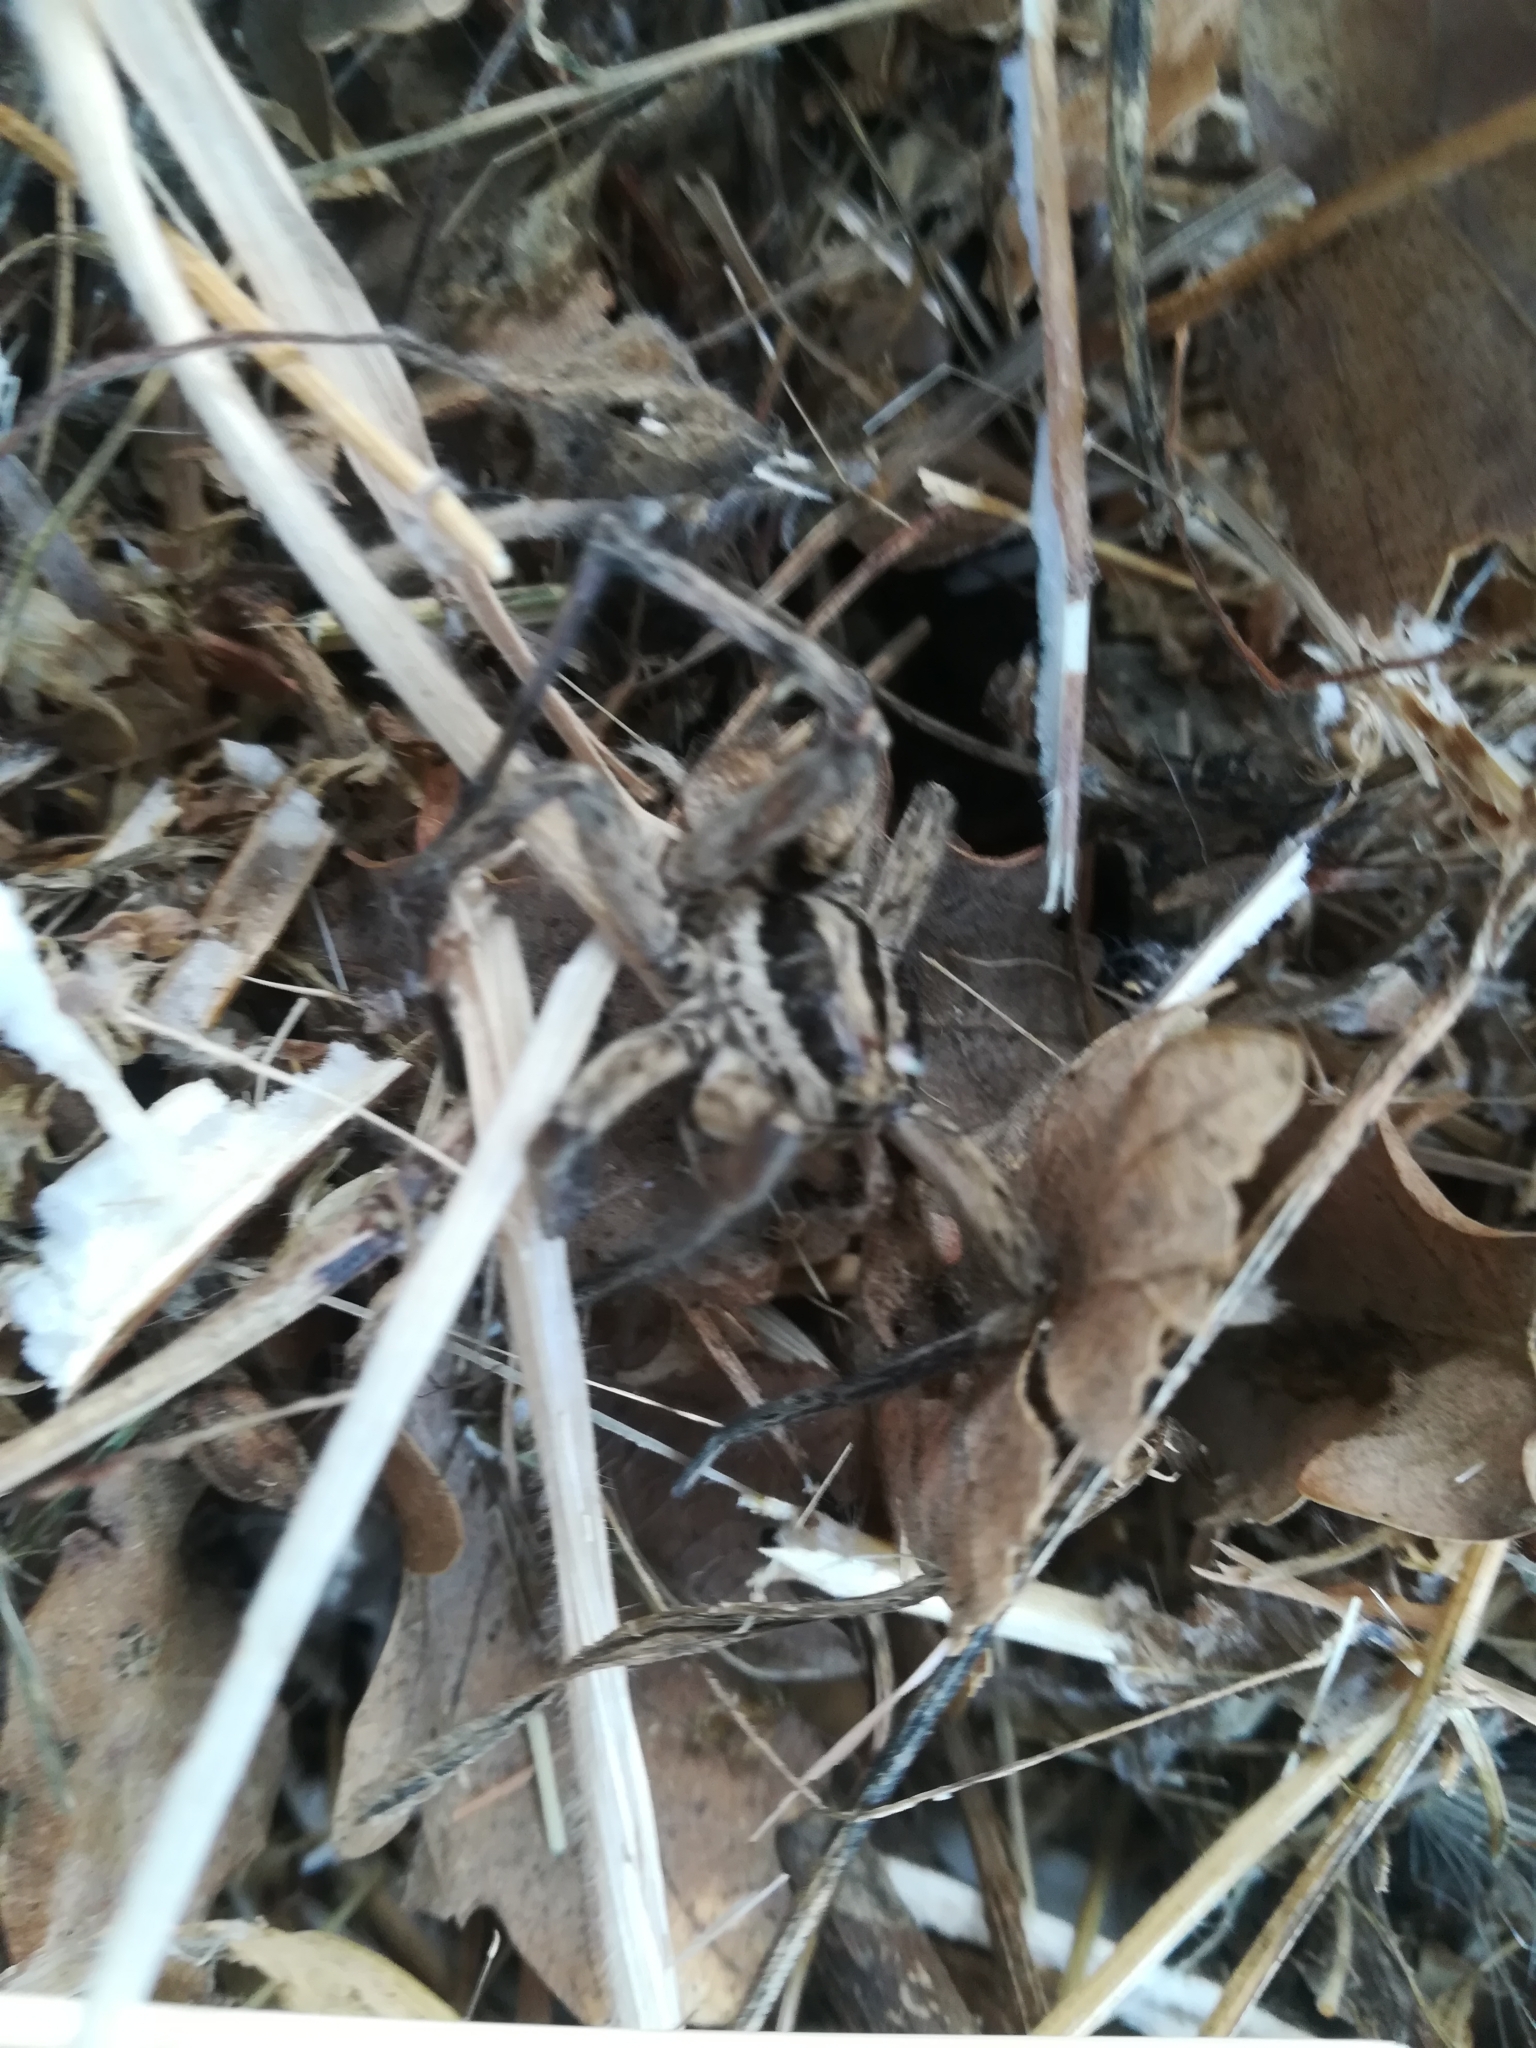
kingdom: Animalia
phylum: Arthropoda
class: Arachnida
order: Araneae
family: Lycosidae
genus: Hogna
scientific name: Hogna radiata
